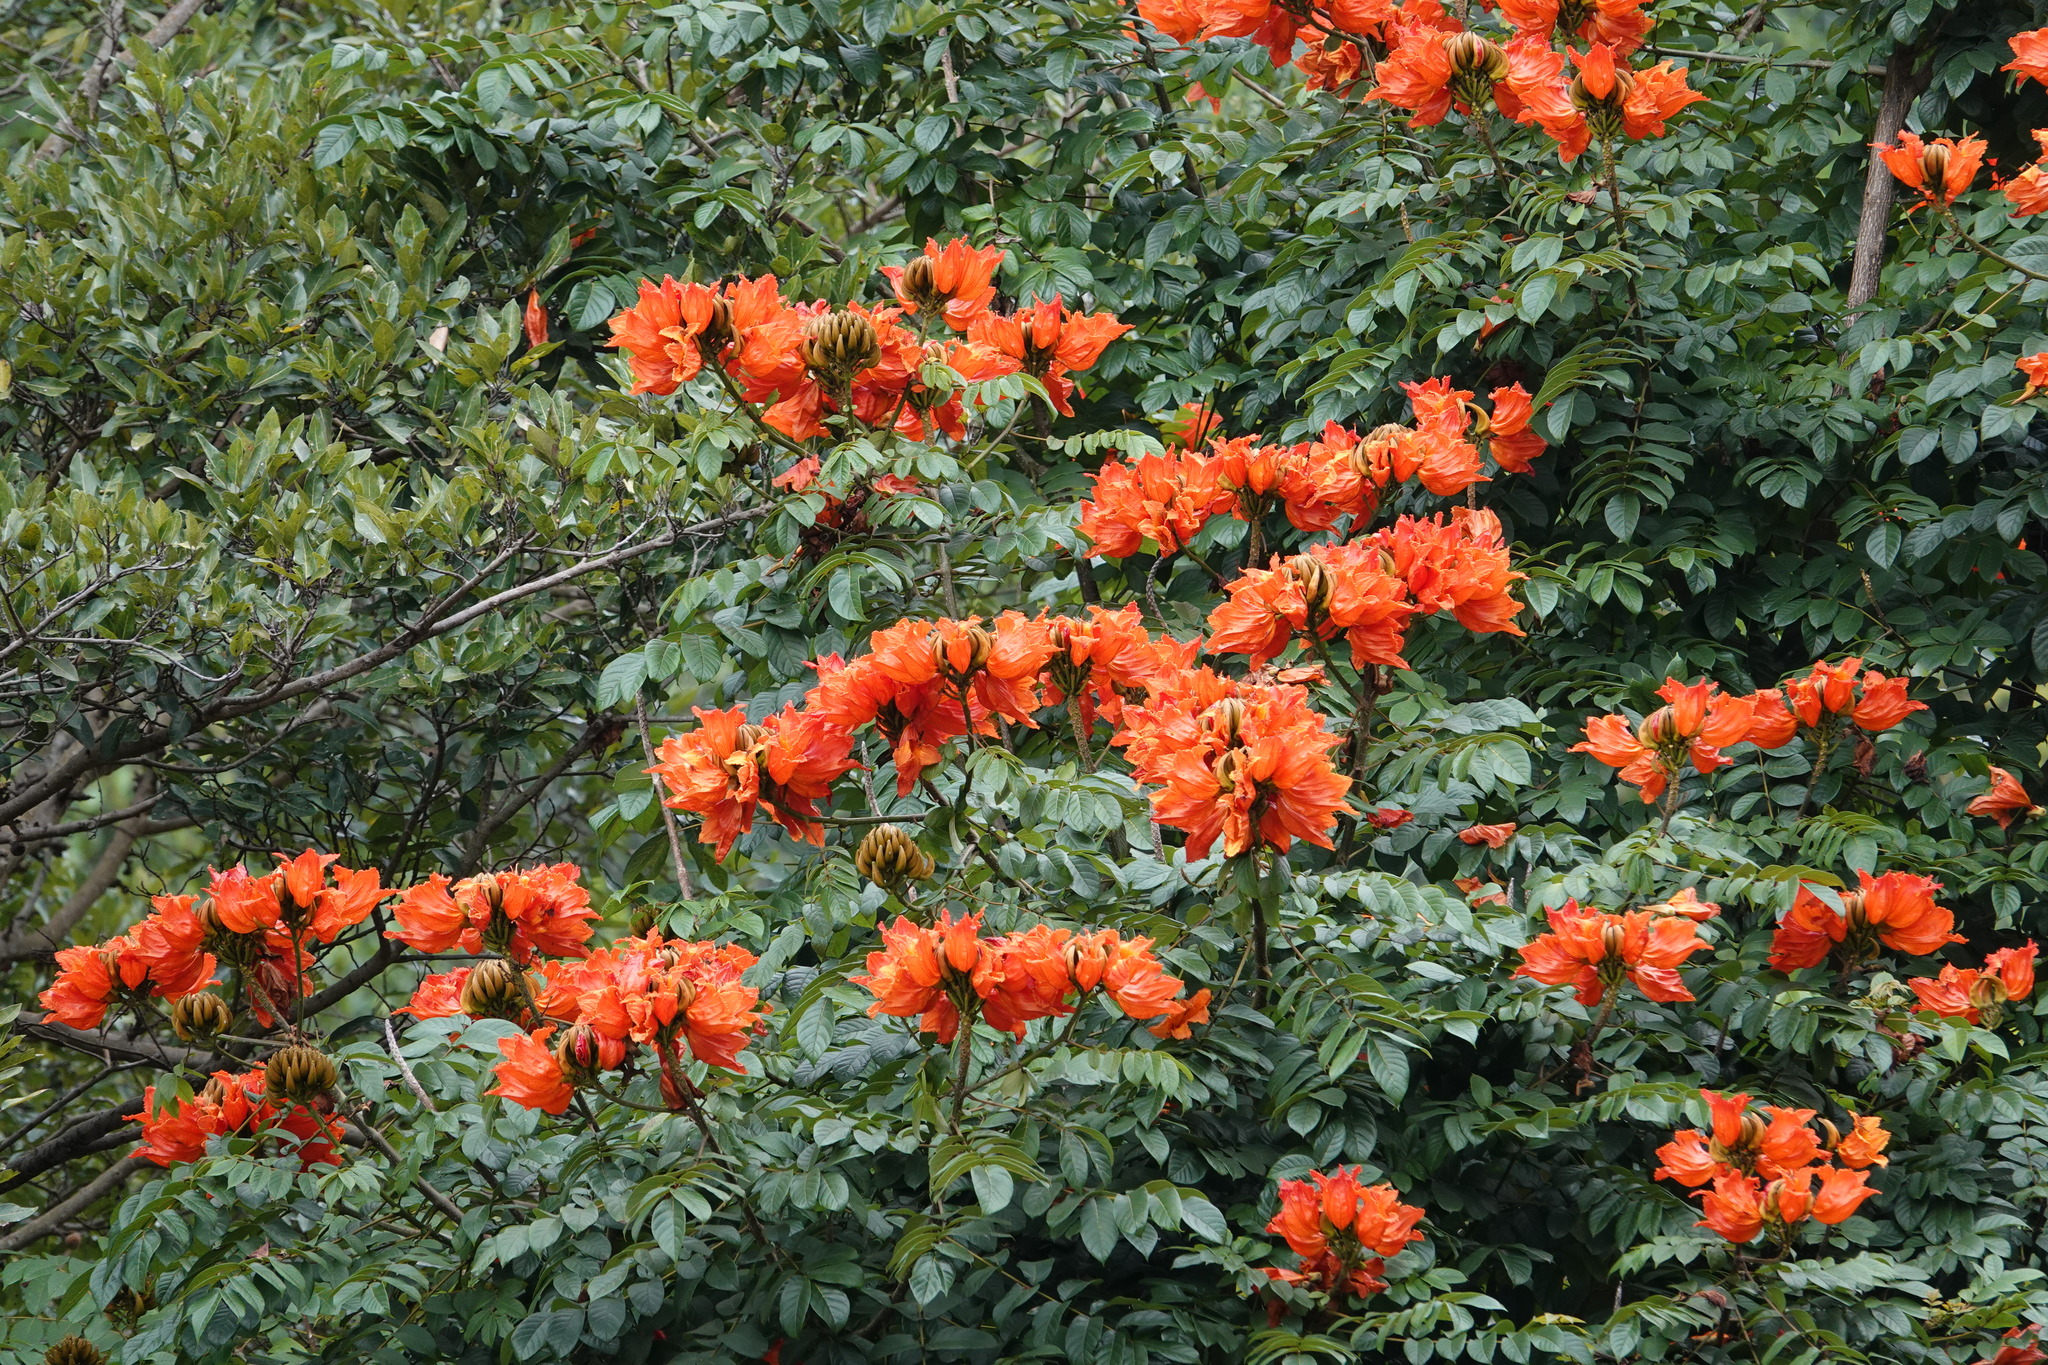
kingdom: Plantae
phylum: Tracheophyta
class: Magnoliopsida
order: Lamiales
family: Bignoniaceae
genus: Spathodea
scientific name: Spathodea campanulata
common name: African tuliptree
